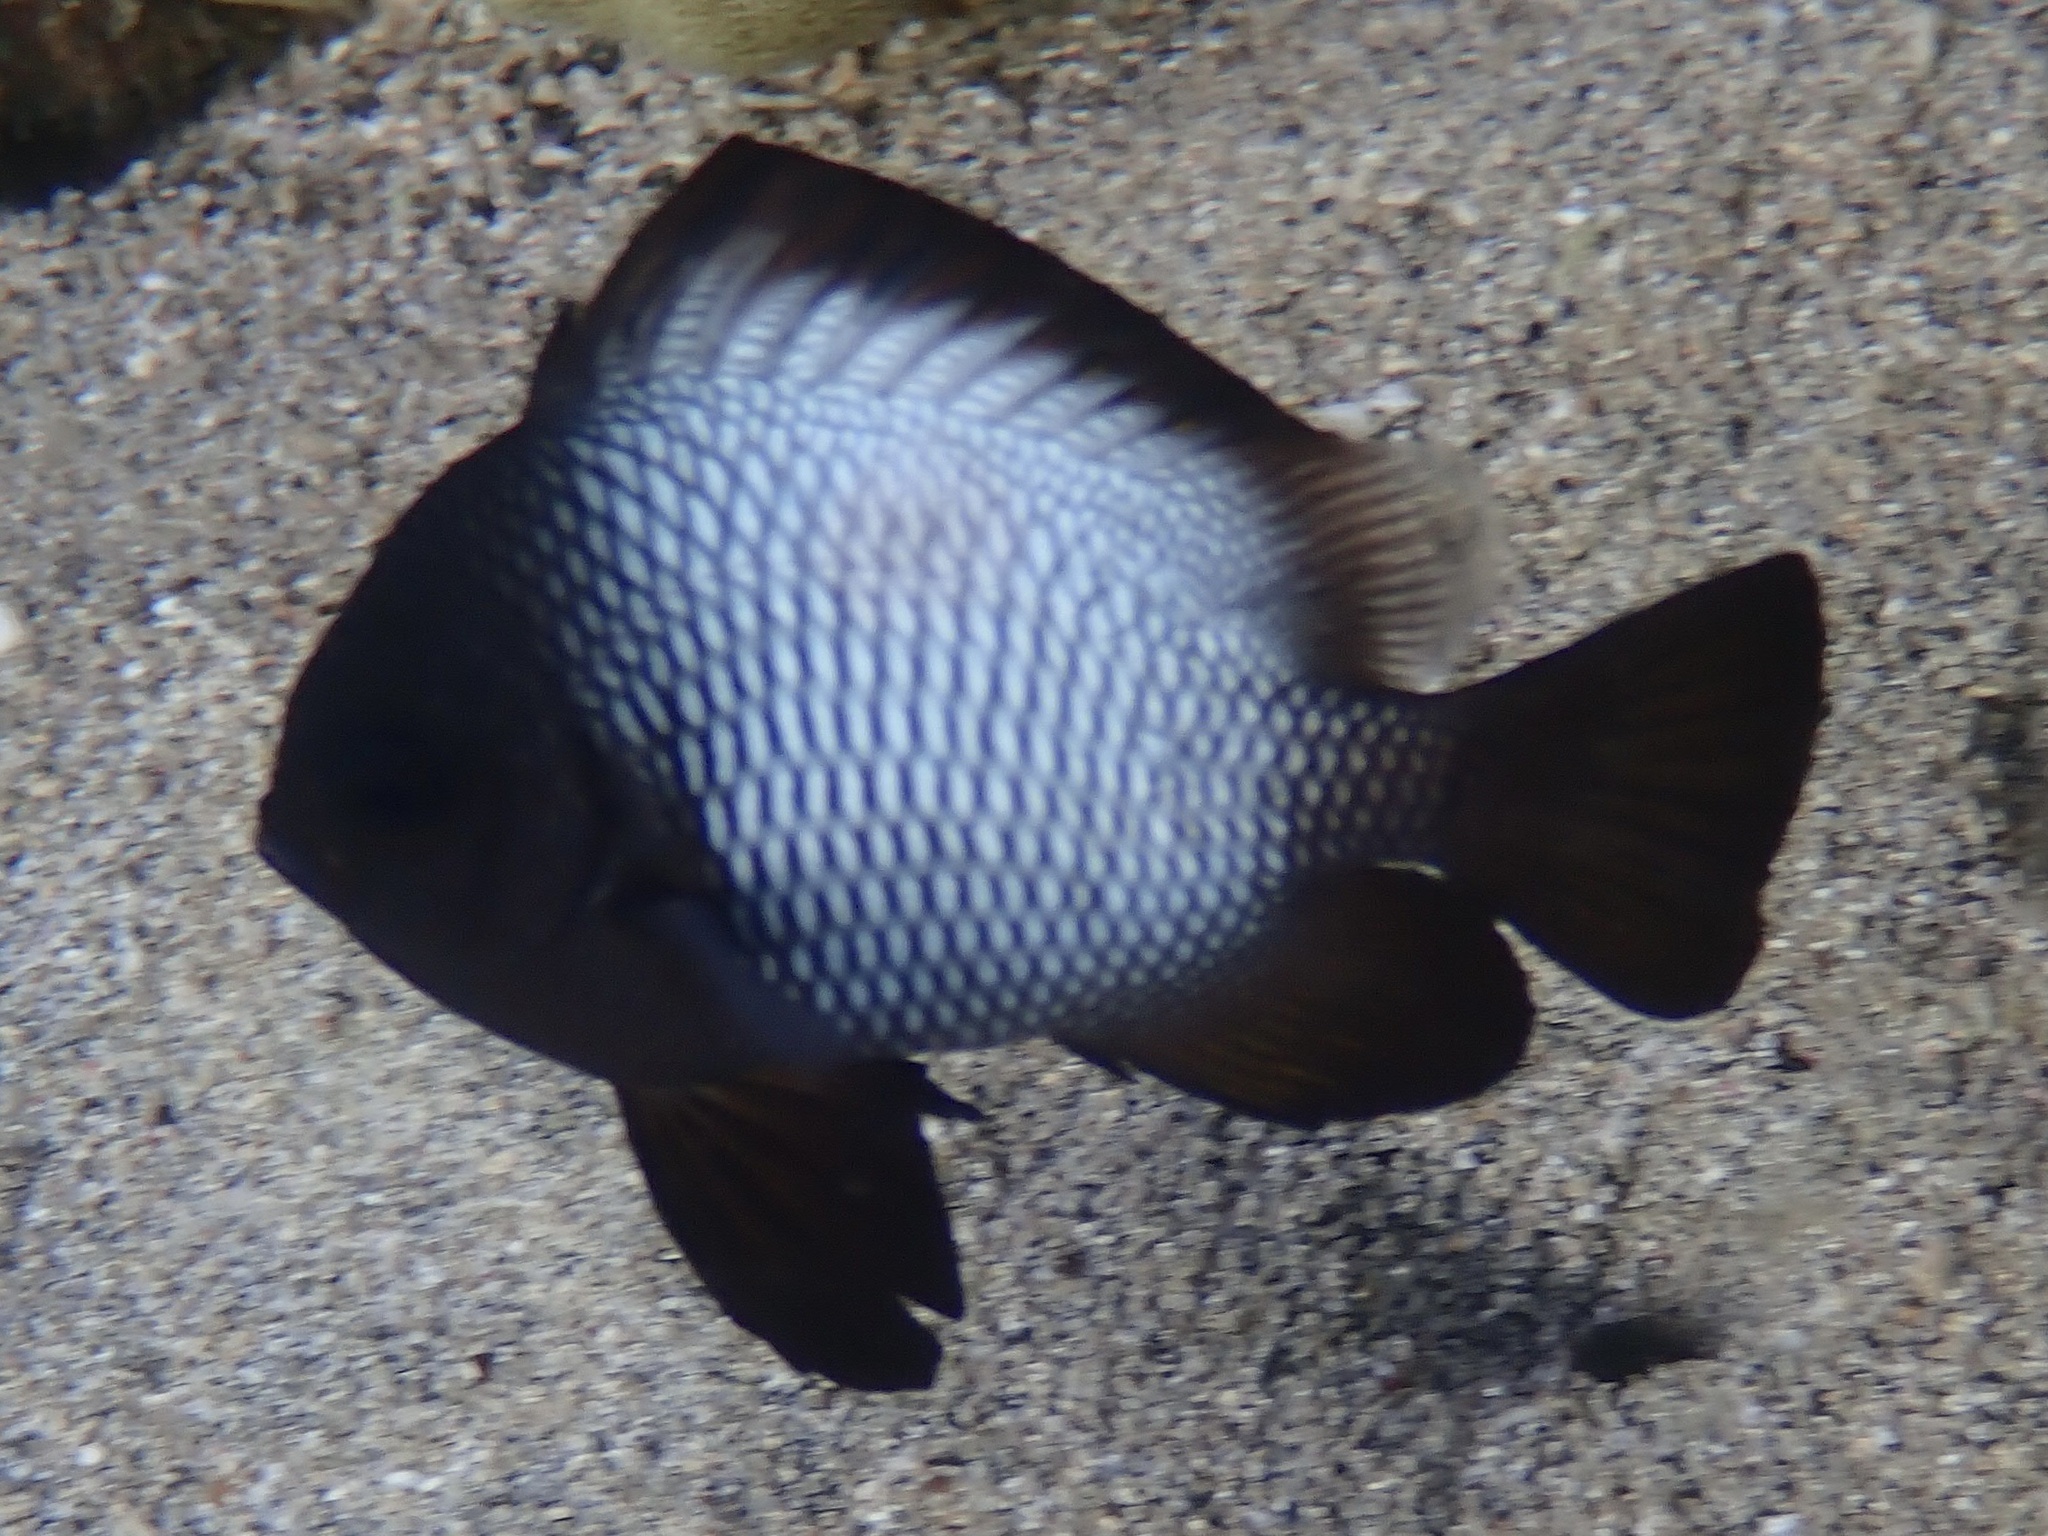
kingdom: Animalia
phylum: Chordata
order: Perciformes
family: Pomacentridae
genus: Dascyllus
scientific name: Dascyllus albisella
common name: Hawaiian dascyllus
